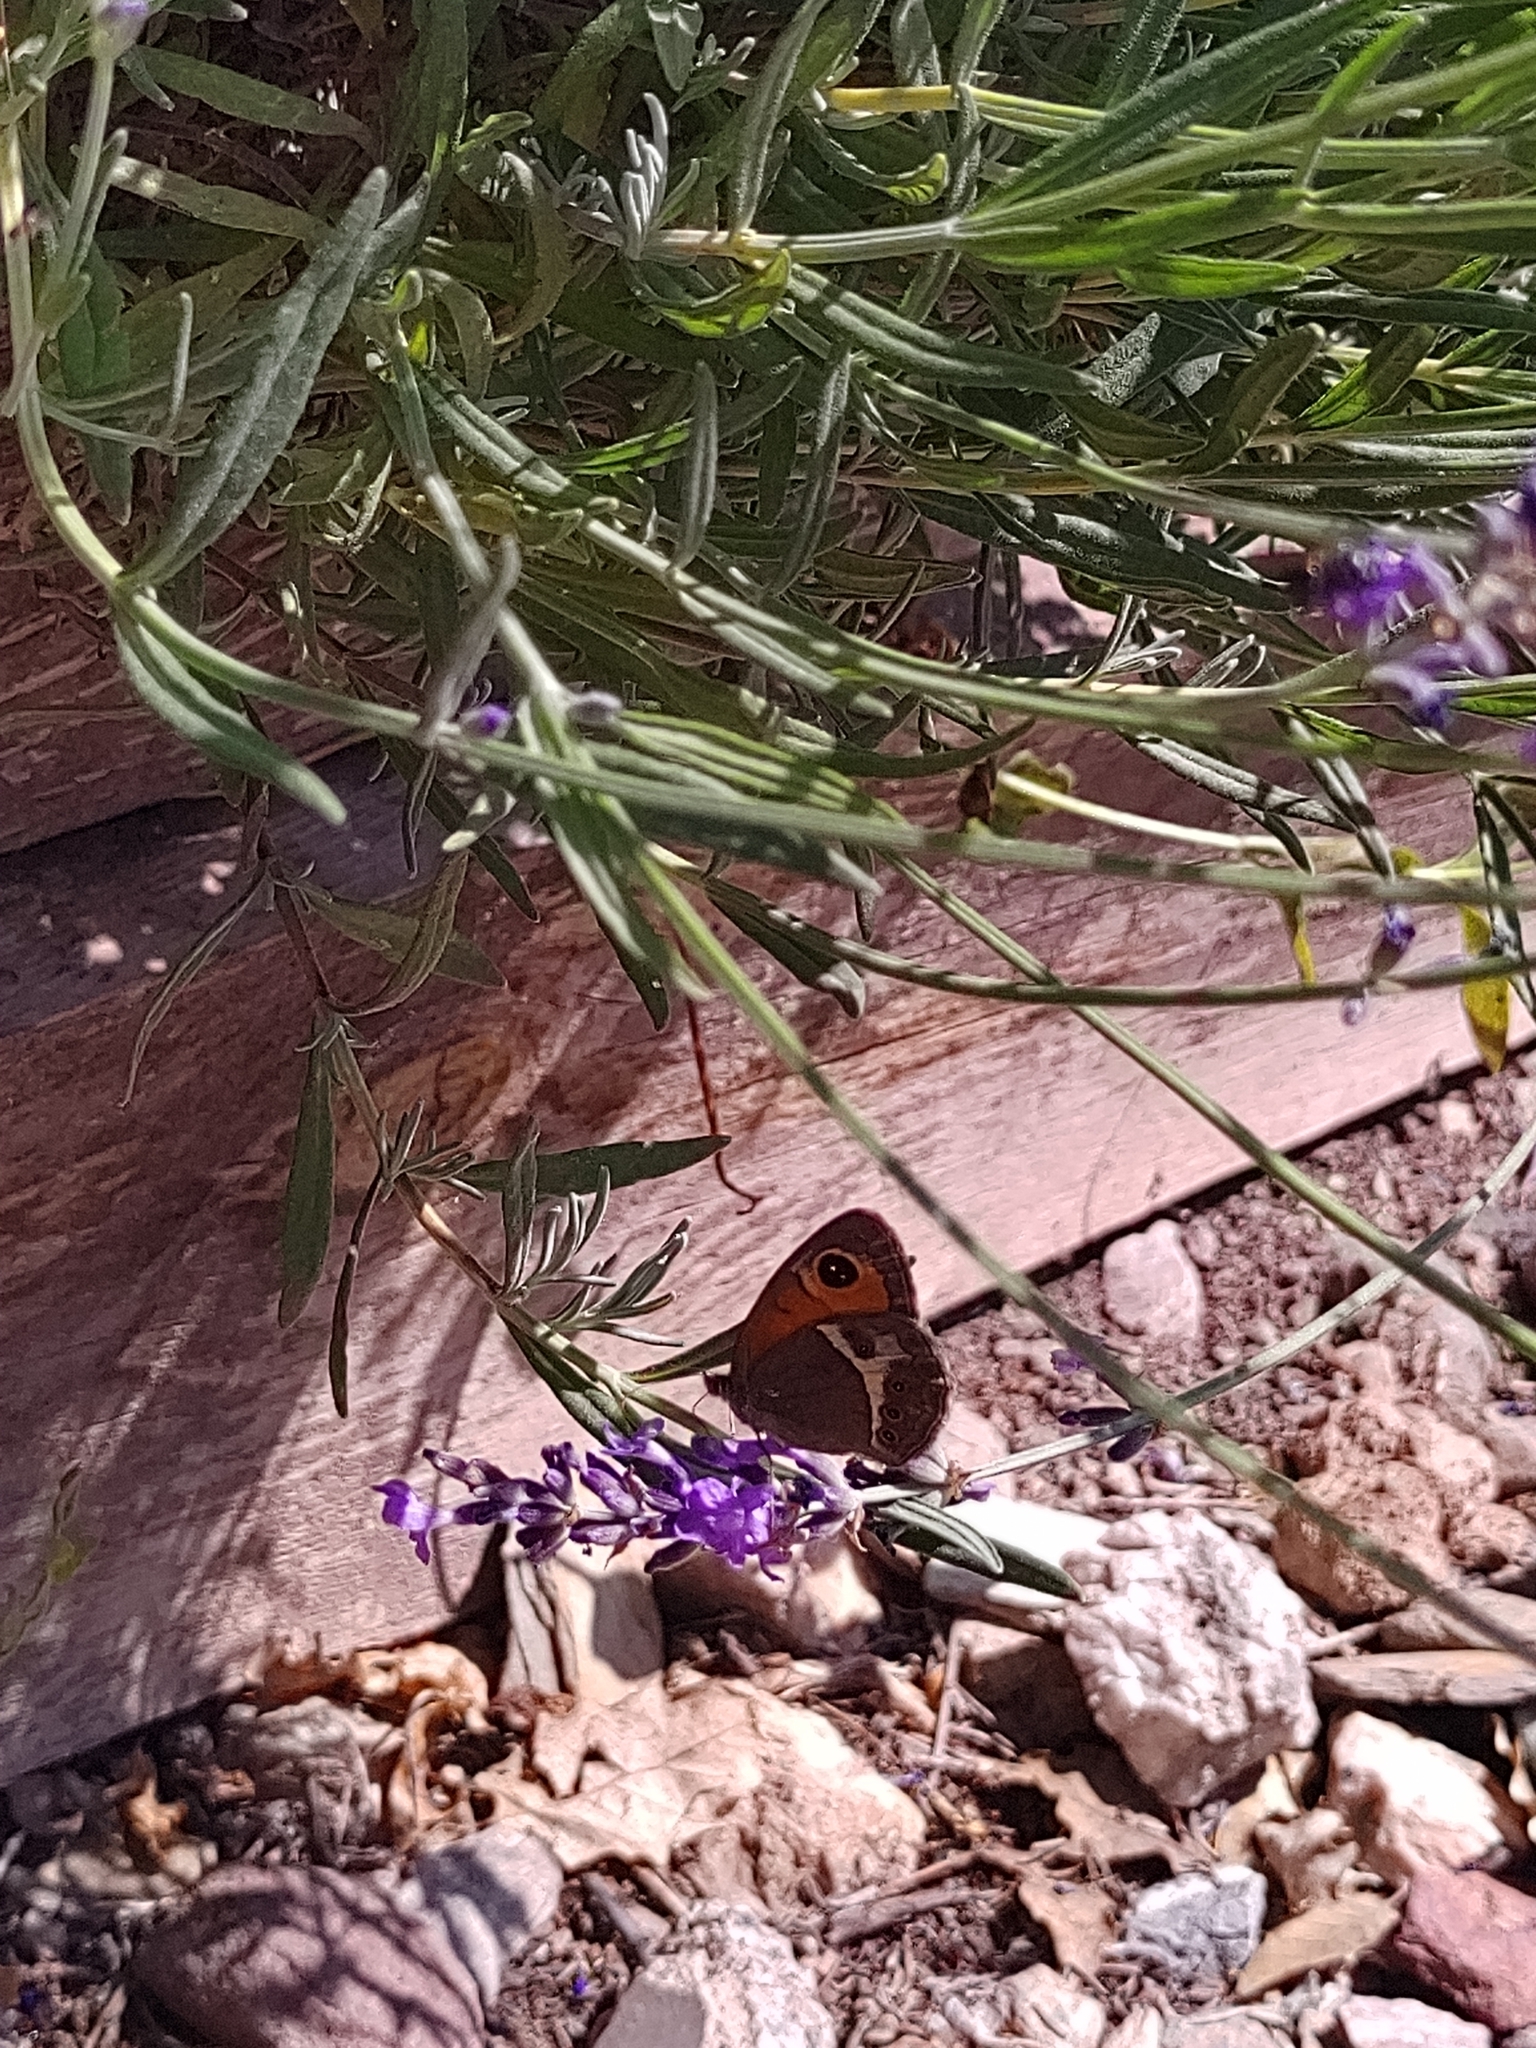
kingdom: Animalia
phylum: Arthropoda
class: Insecta
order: Lepidoptera
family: Nymphalidae
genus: Pyronia
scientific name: Pyronia bathseba
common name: Spanish gatekeeper
